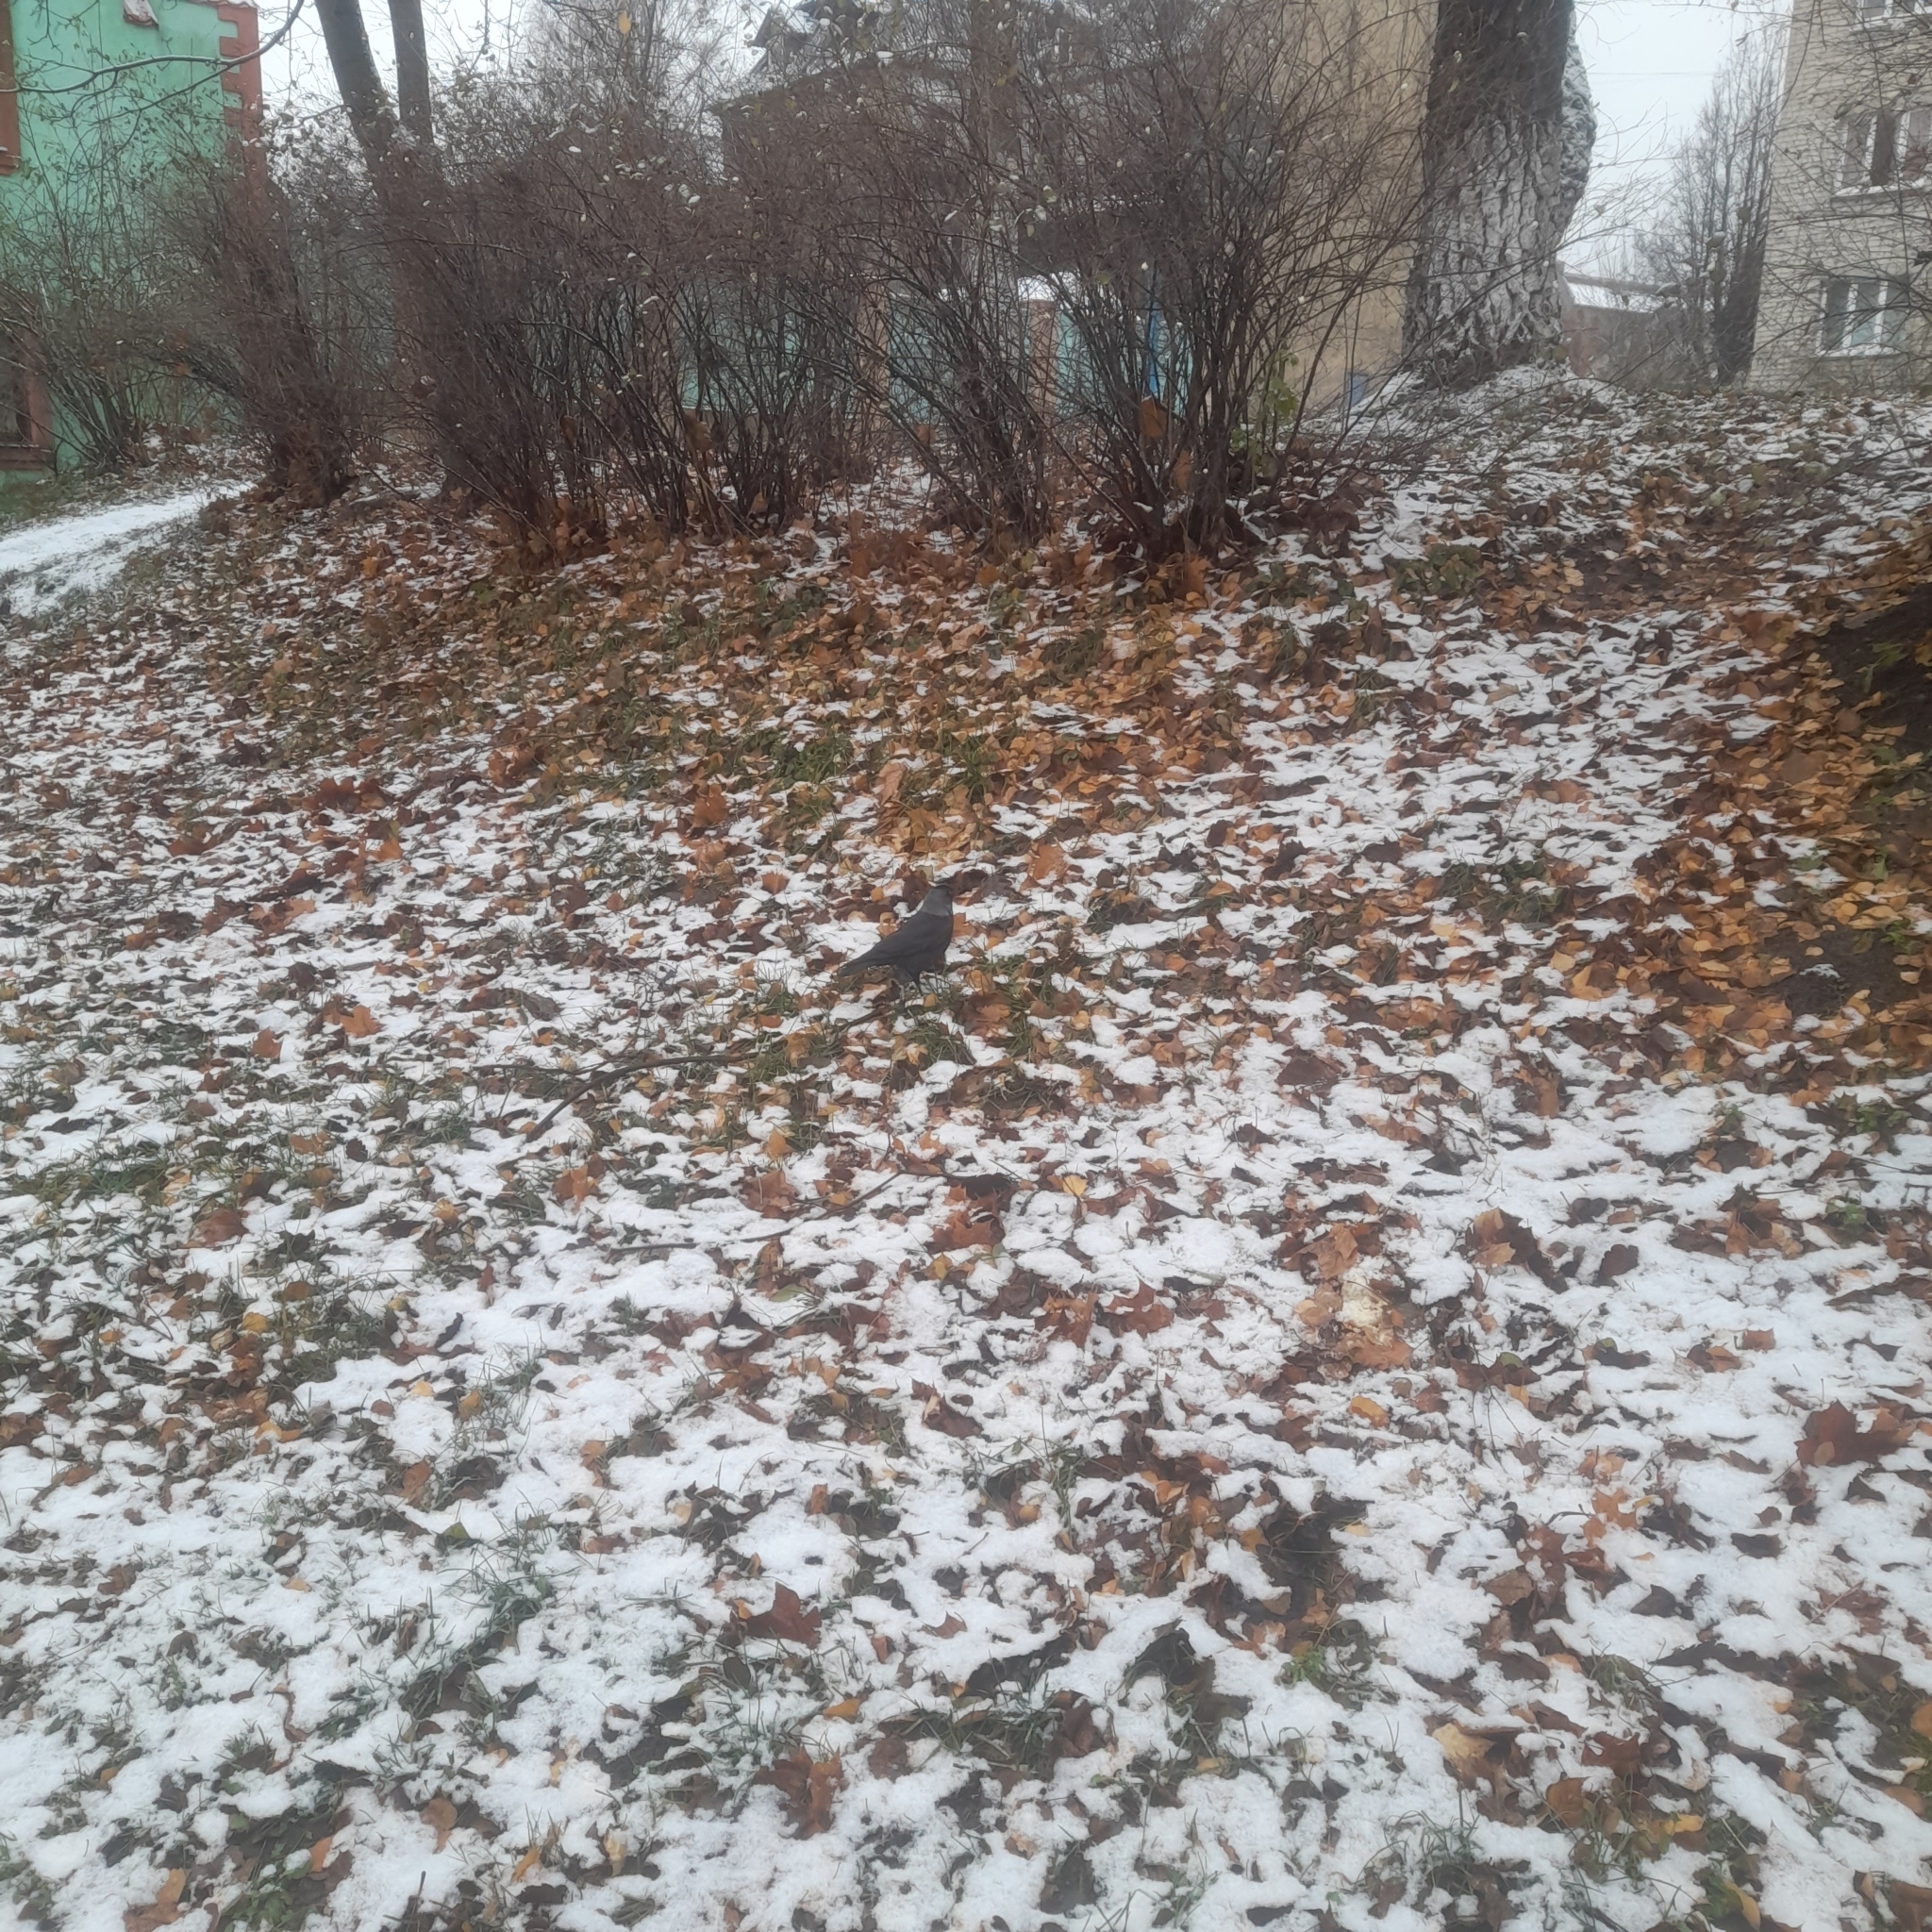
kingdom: Animalia
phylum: Chordata
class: Aves
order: Passeriformes
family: Corvidae
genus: Coloeus
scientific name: Coloeus monedula
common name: Western jackdaw
